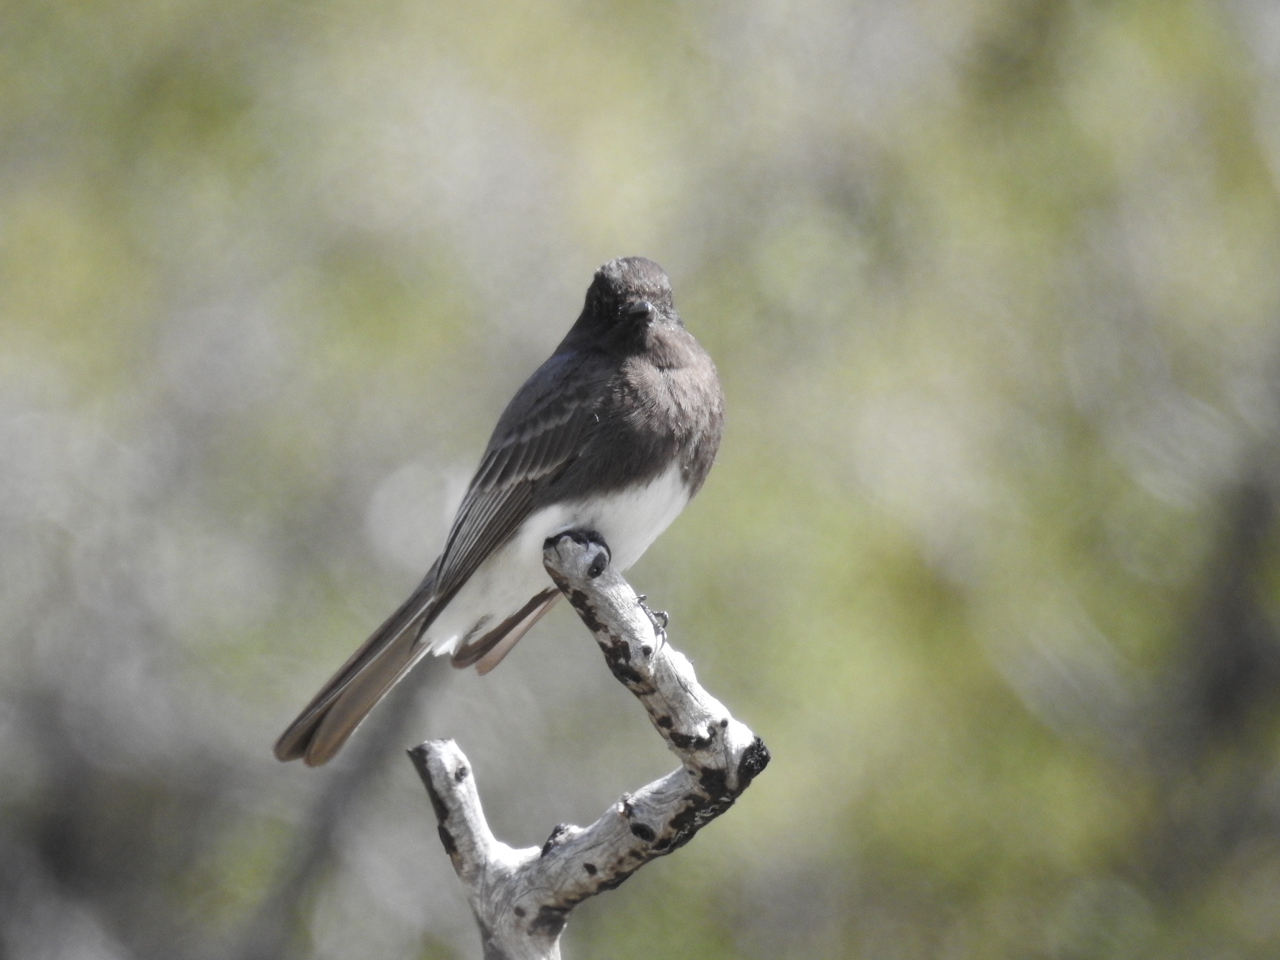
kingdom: Animalia
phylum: Chordata
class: Aves
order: Passeriformes
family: Tyrannidae
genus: Sayornis
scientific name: Sayornis nigricans
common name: Black phoebe
